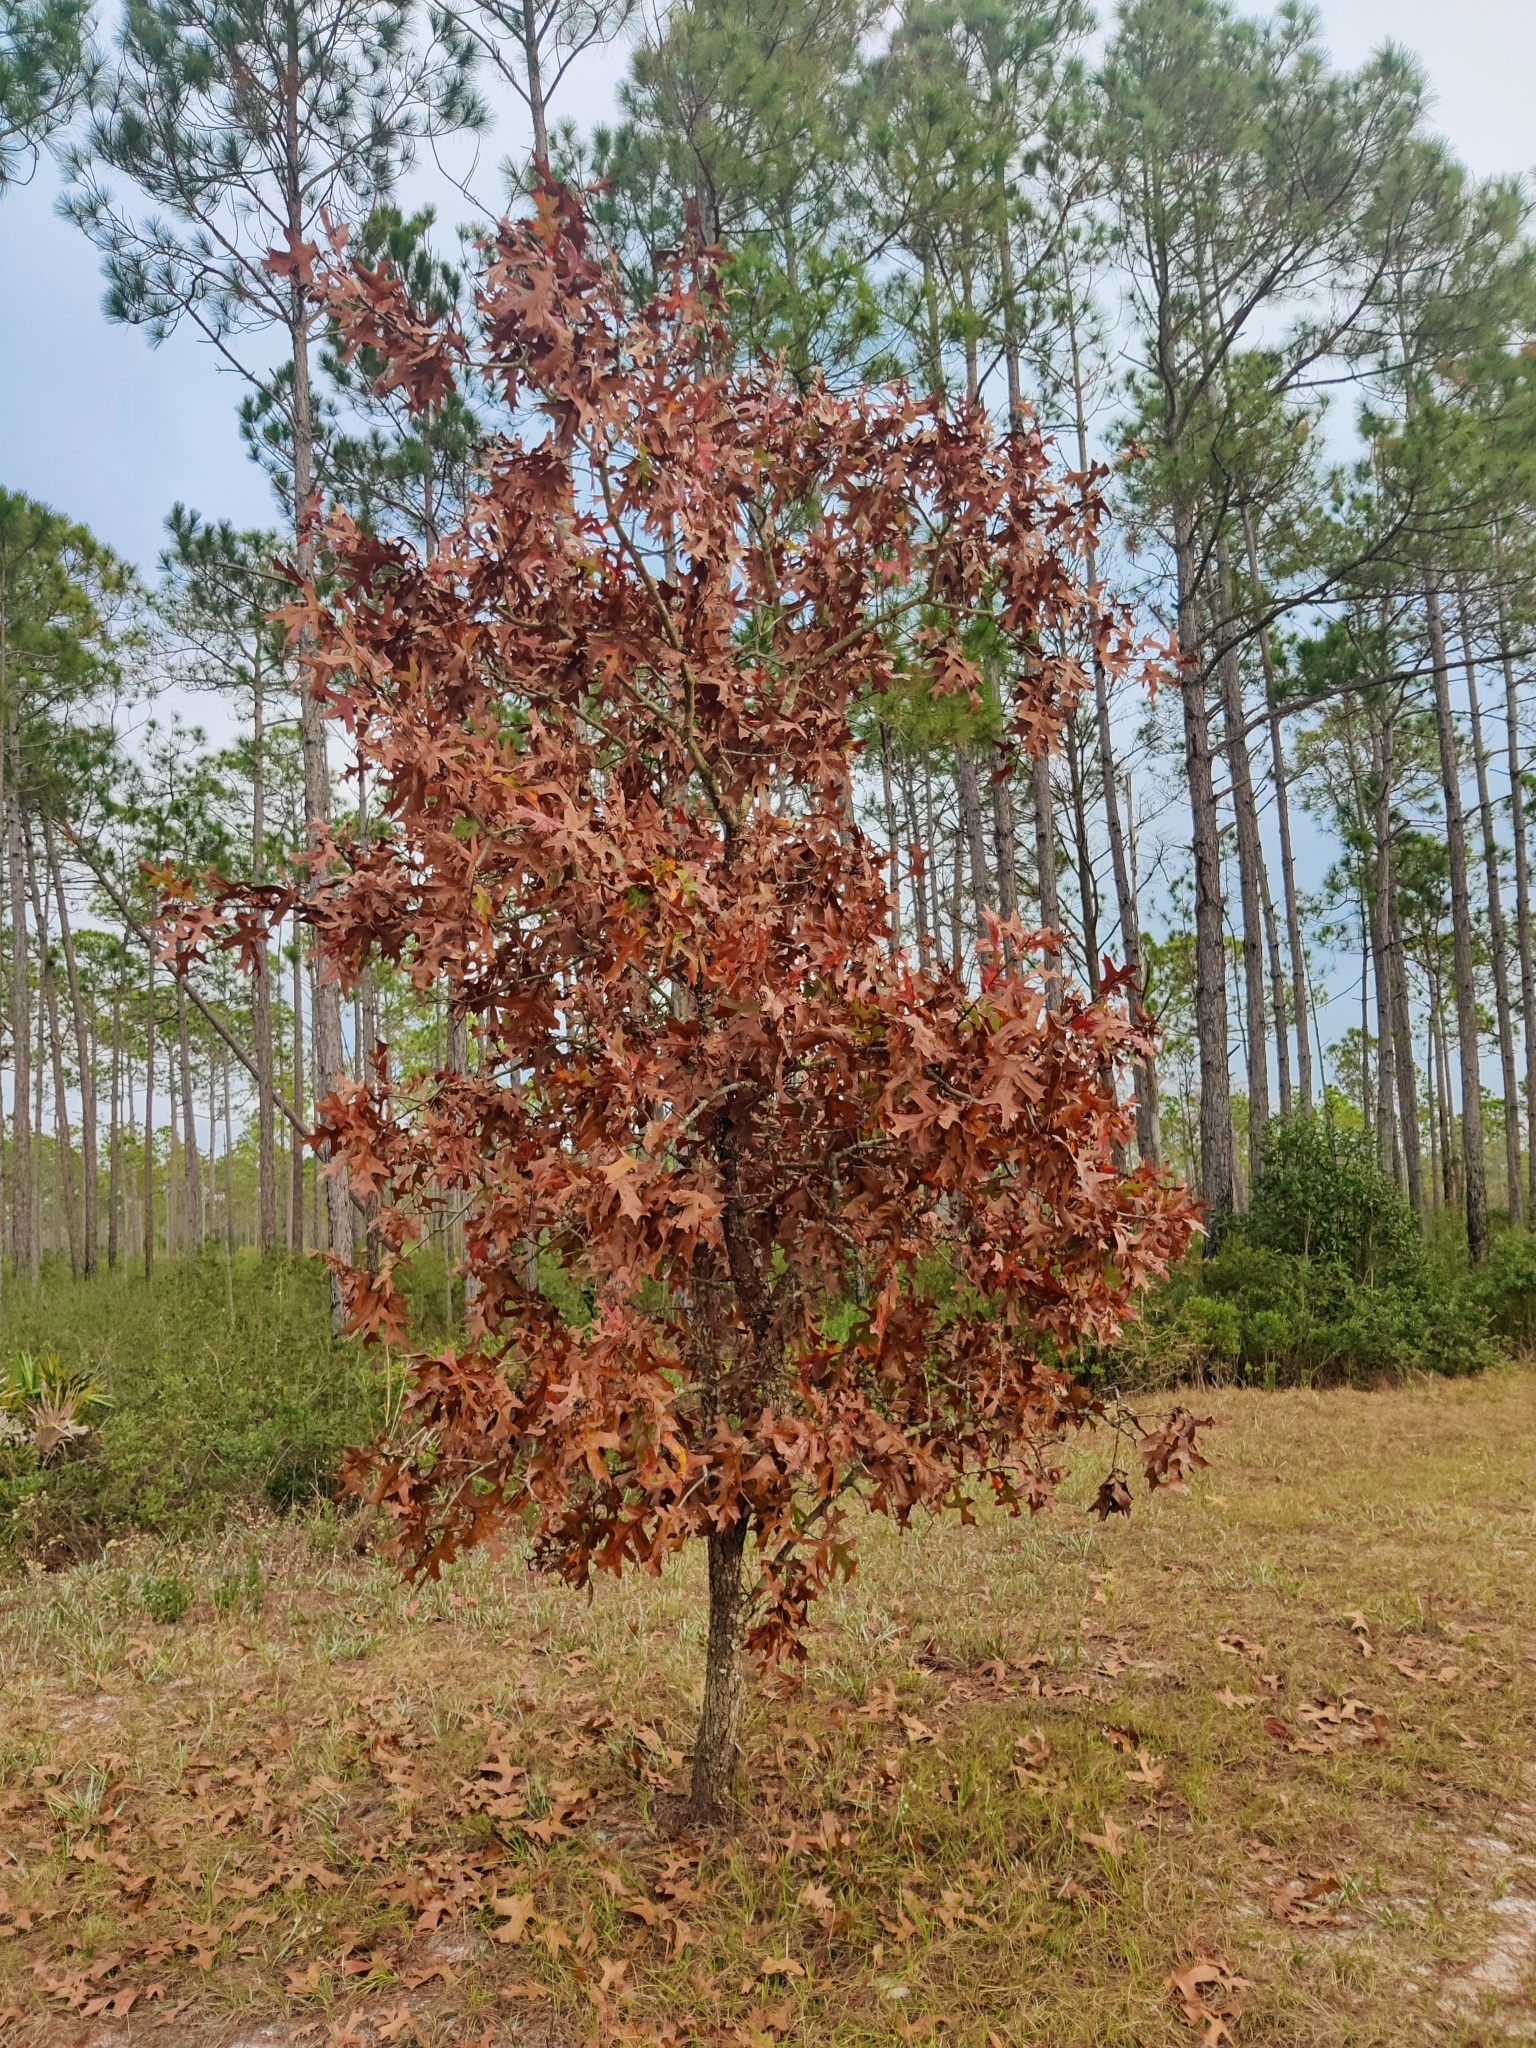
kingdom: Plantae
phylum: Tracheophyta
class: Magnoliopsida
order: Fagales
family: Fagaceae
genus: Quercus
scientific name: Quercus laevis
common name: Turkey oak
